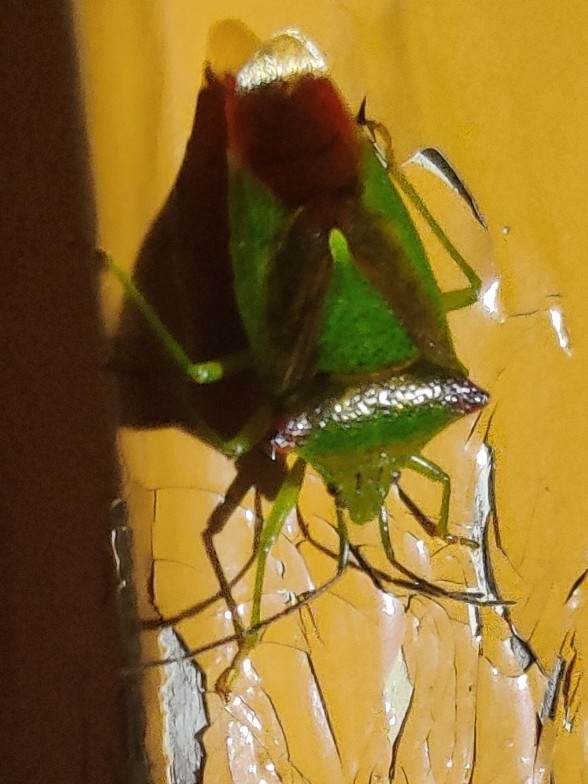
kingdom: Animalia
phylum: Arthropoda
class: Insecta
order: Hemiptera
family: Acanthosomatidae
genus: Acanthosoma
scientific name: Acanthosoma haemorrhoidale
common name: Hawthorn shieldbug
